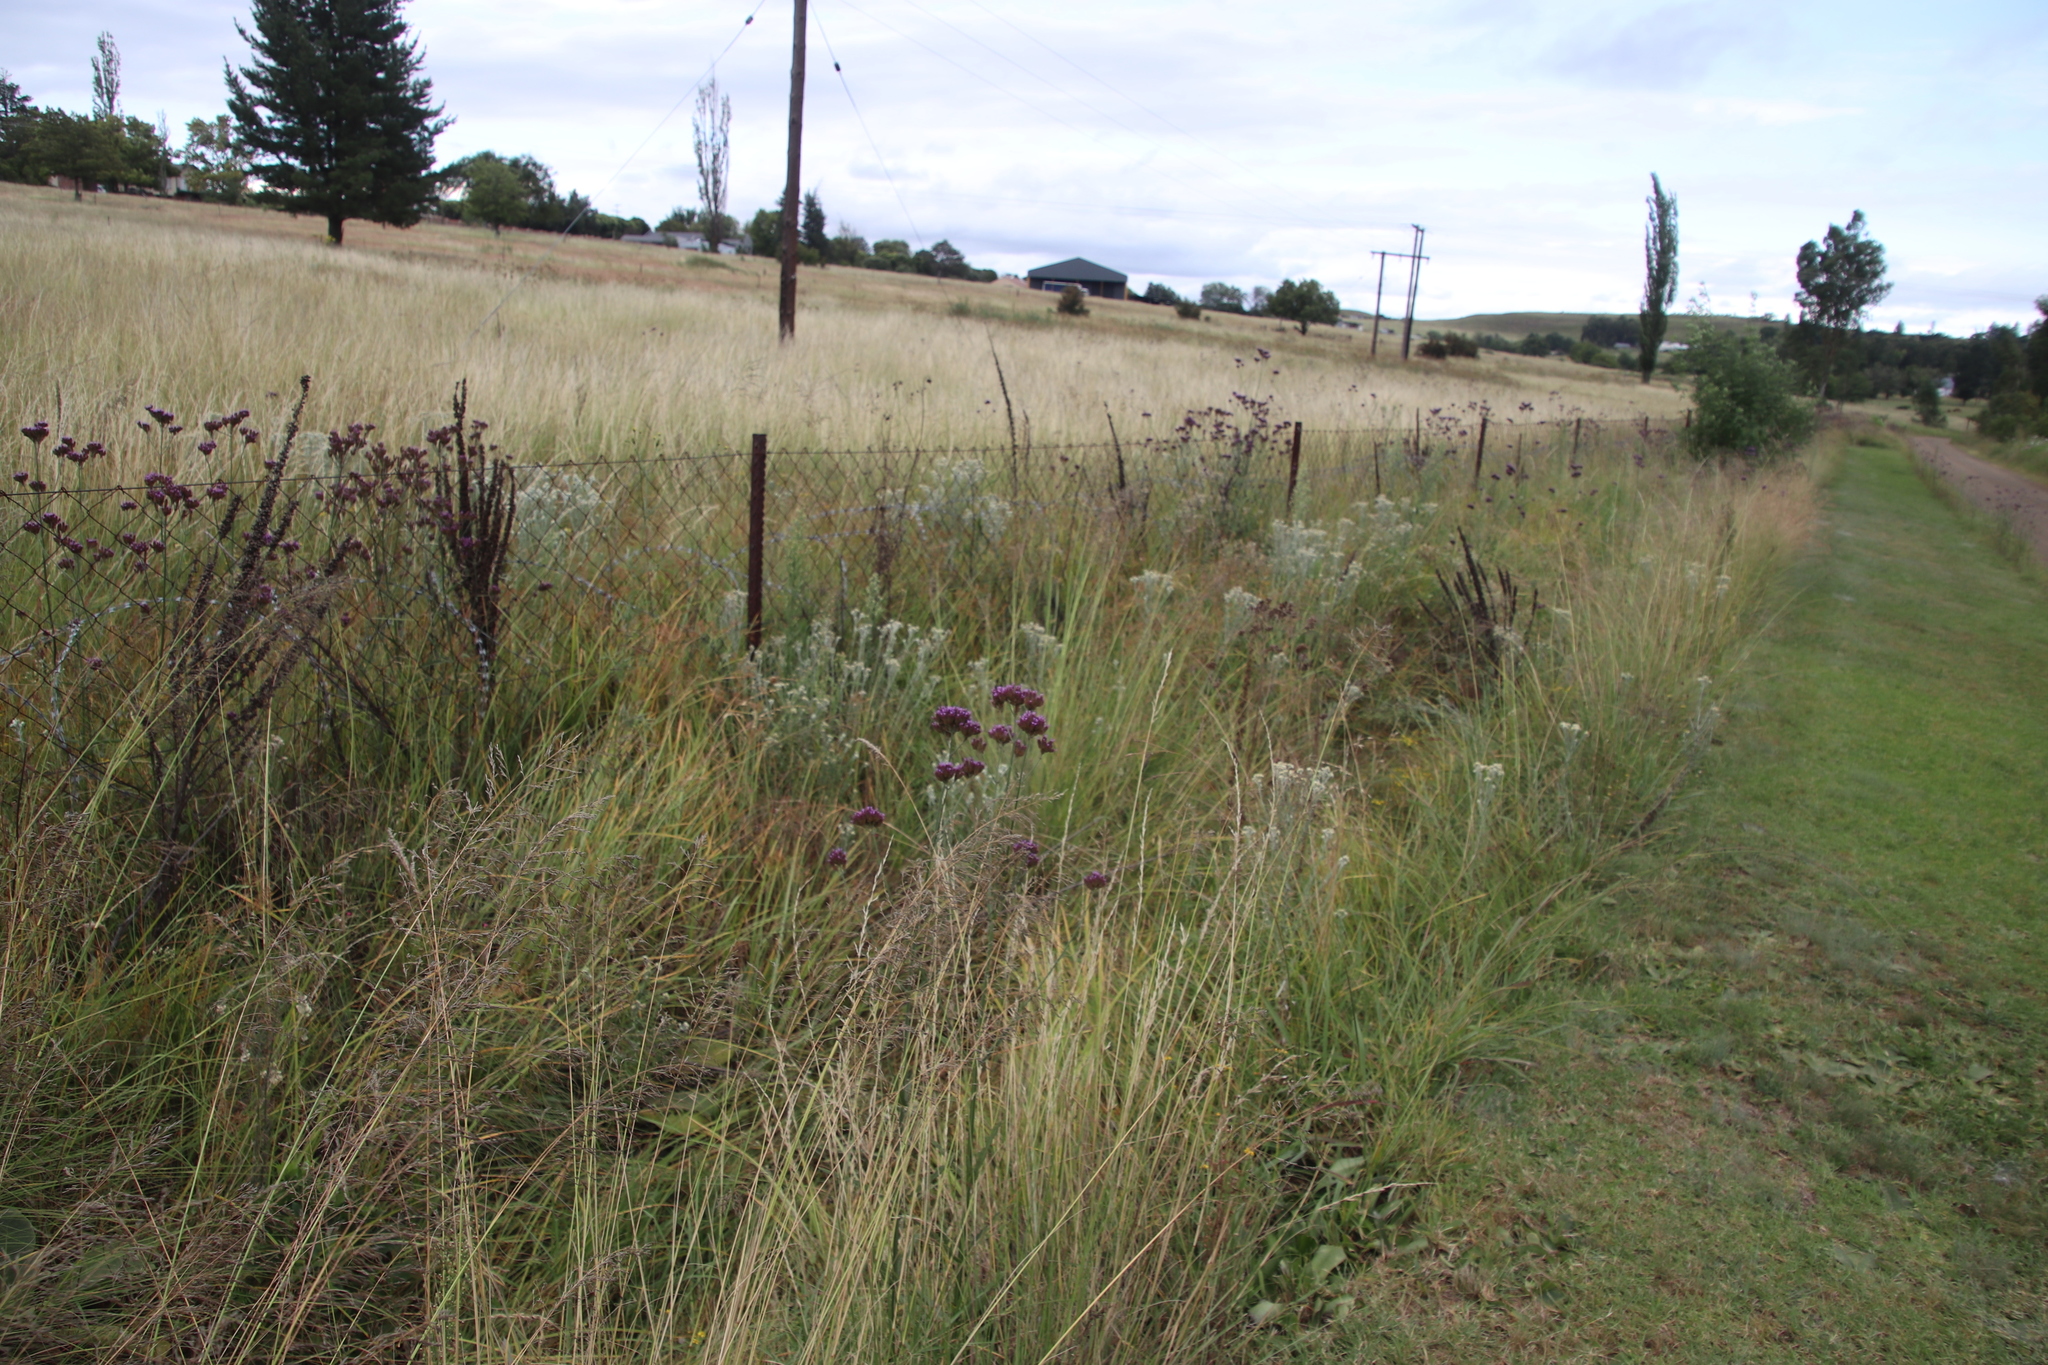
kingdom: Plantae
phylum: Tracheophyta
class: Magnoliopsida
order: Lamiales
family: Verbenaceae
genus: Verbena
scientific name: Verbena bonariensis
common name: Purpletop vervain
